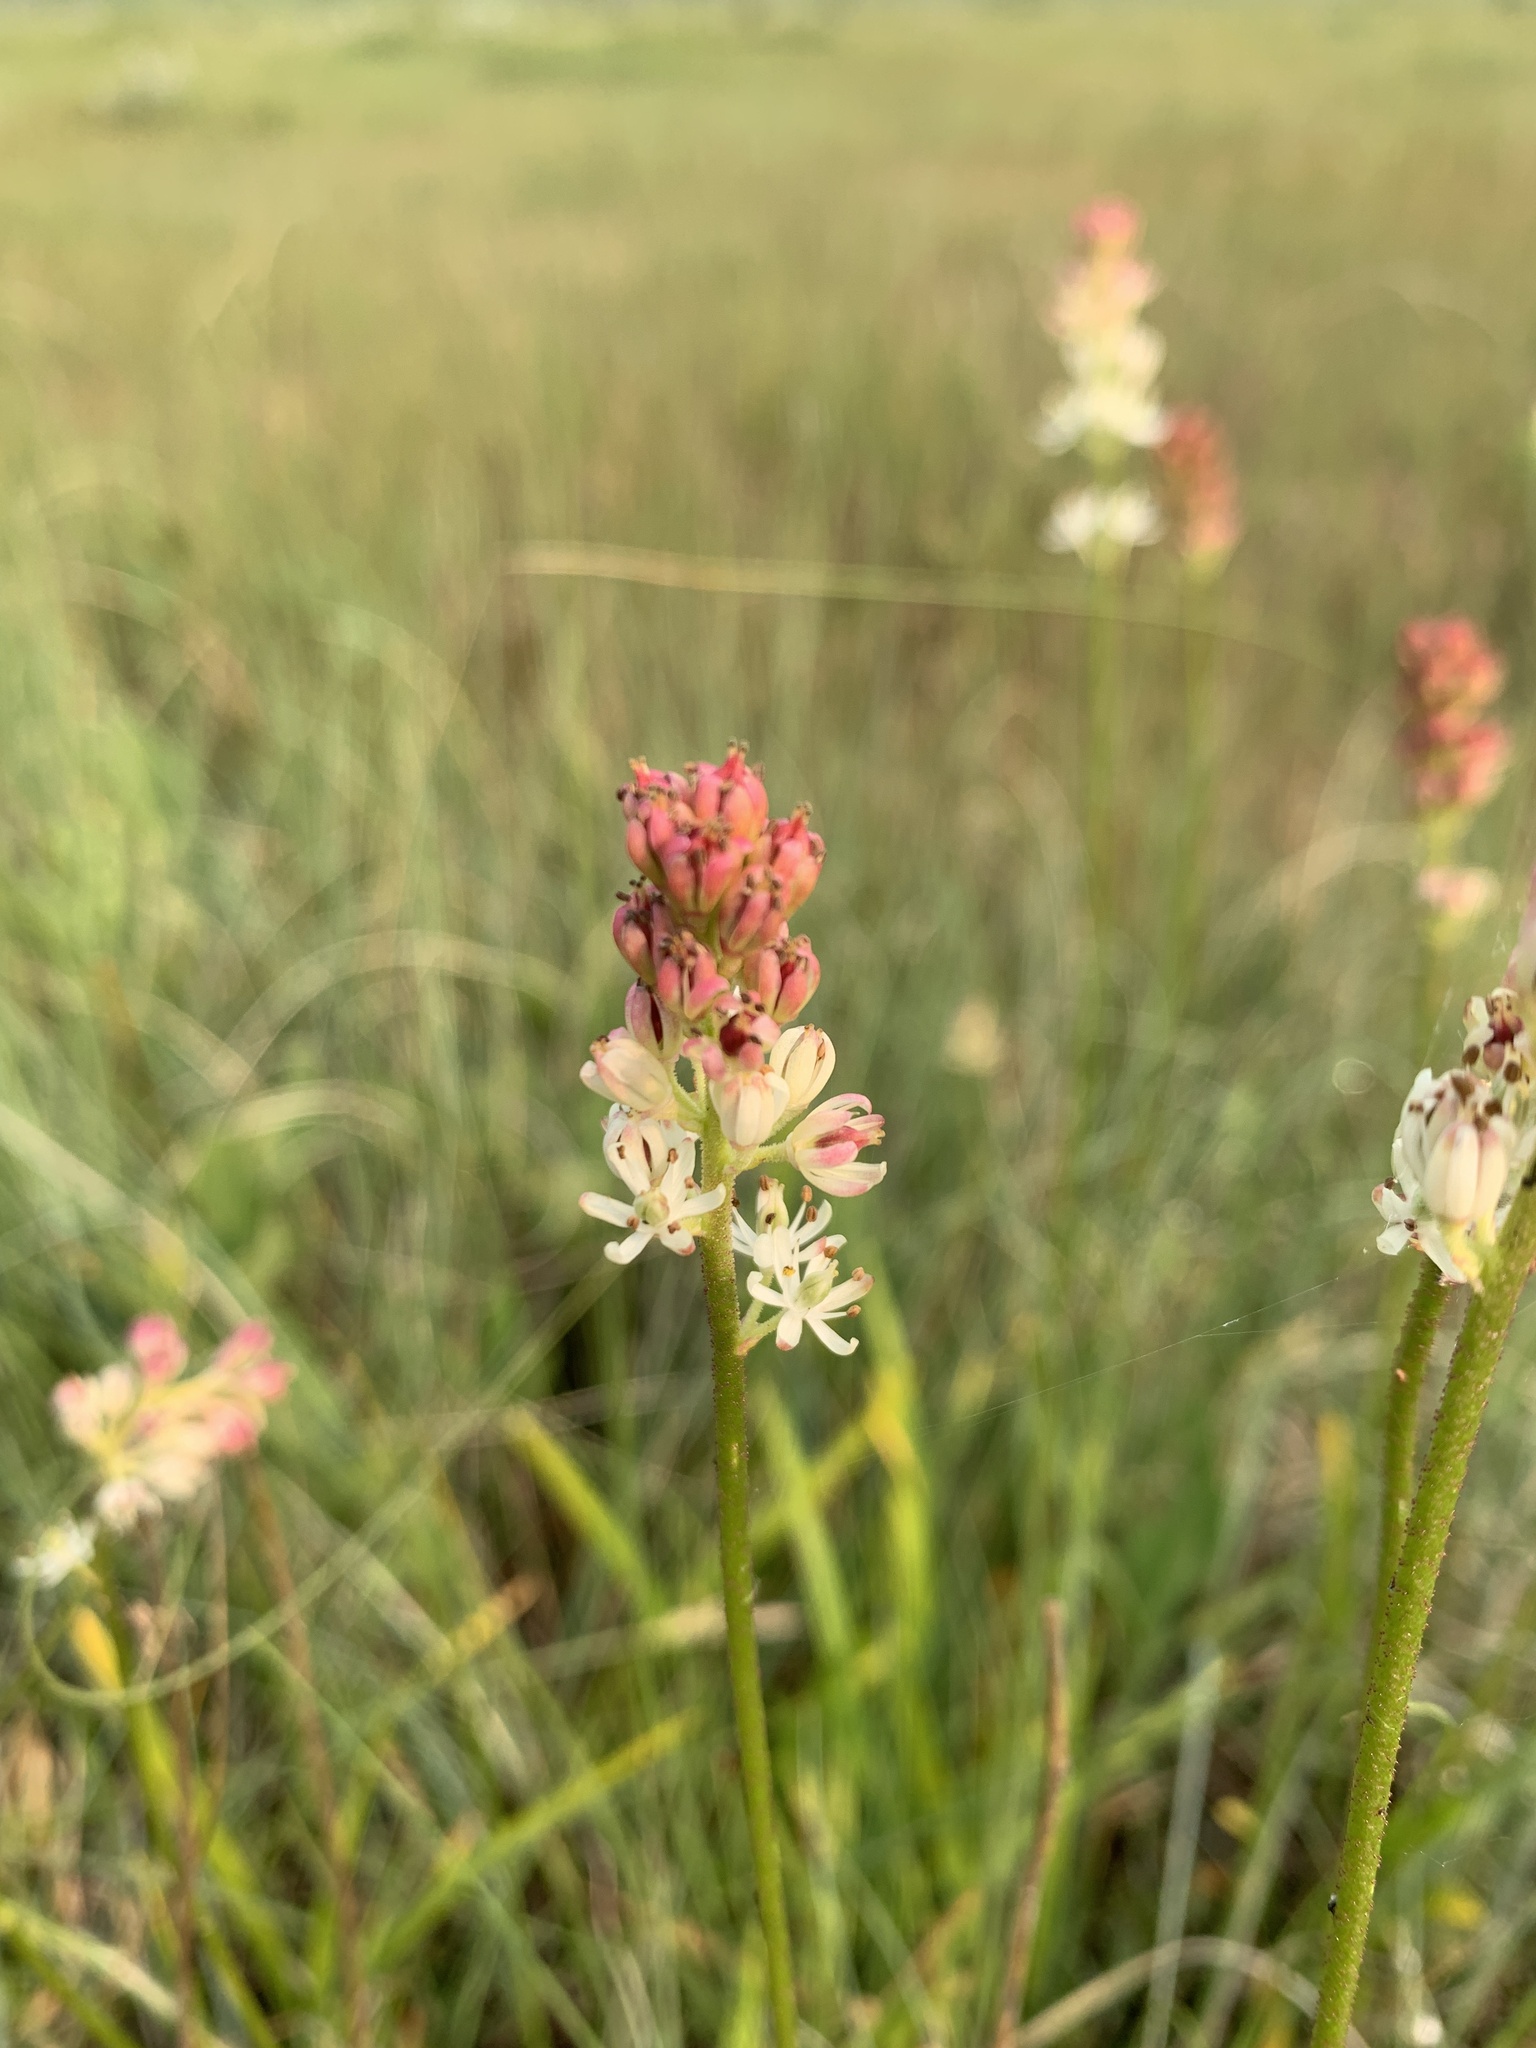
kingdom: Plantae
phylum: Tracheophyta
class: Liliopsida
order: Alismatales
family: Tofieldiaceae
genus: Triantha
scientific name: Triantha glutinosa
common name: Glutinous tofieldia
